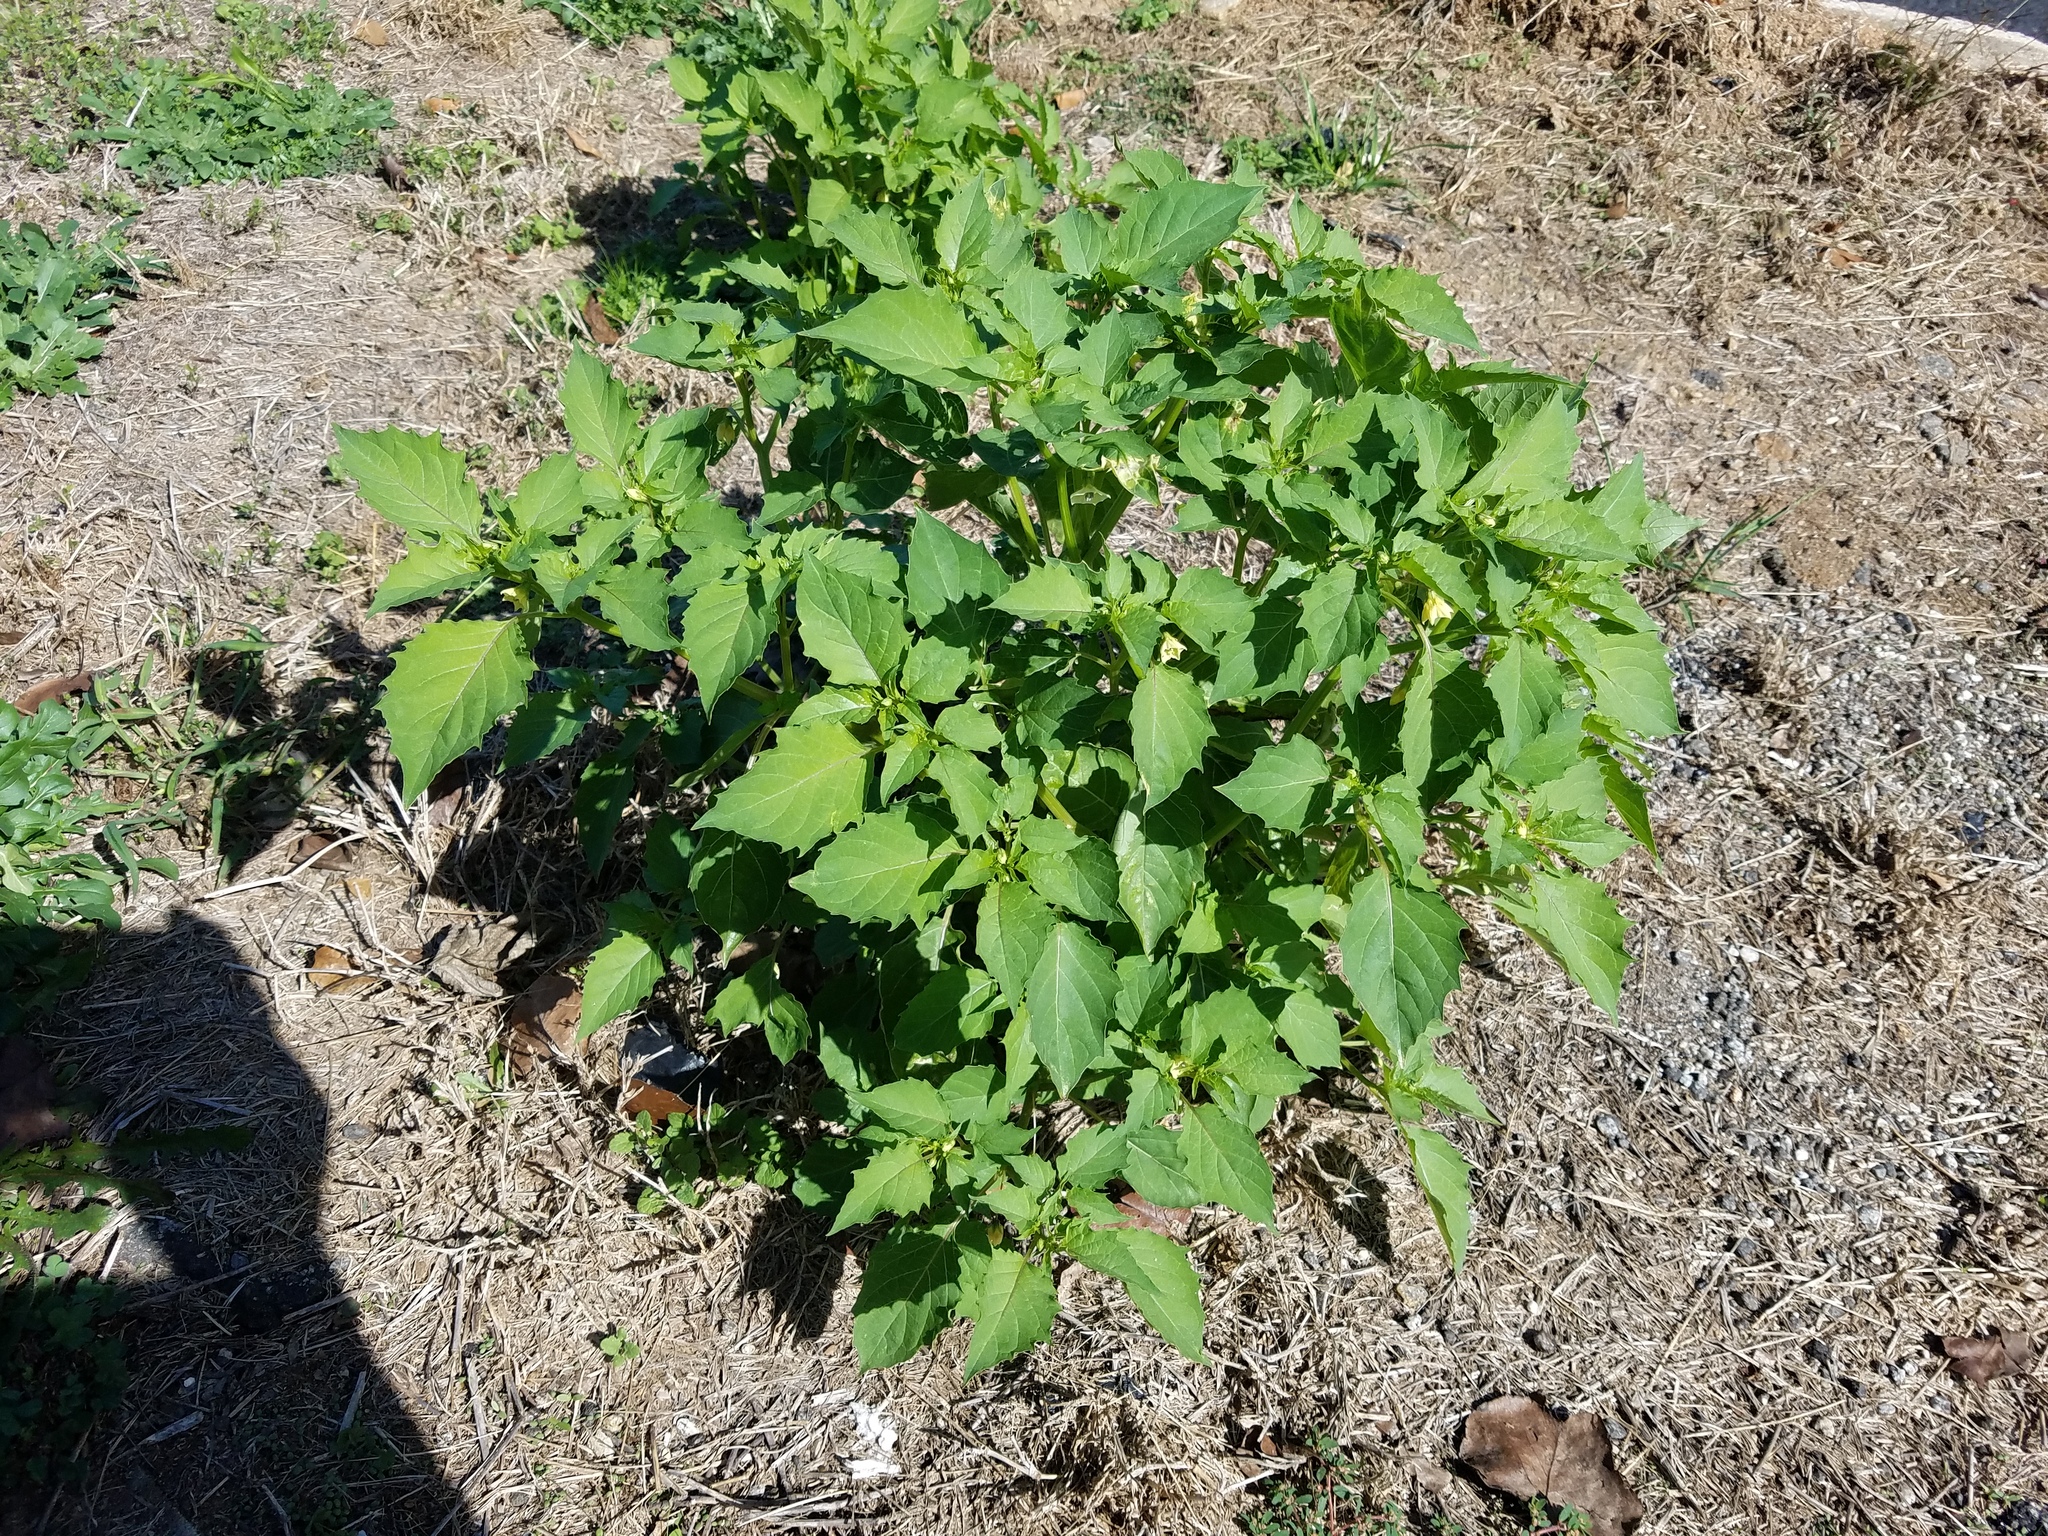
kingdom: Plantae
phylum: Tracheophyta
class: Magnoliopsida
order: Solanales
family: Solanaceae
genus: Physalis
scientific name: Physalis angulata
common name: Angular winter-cherry
